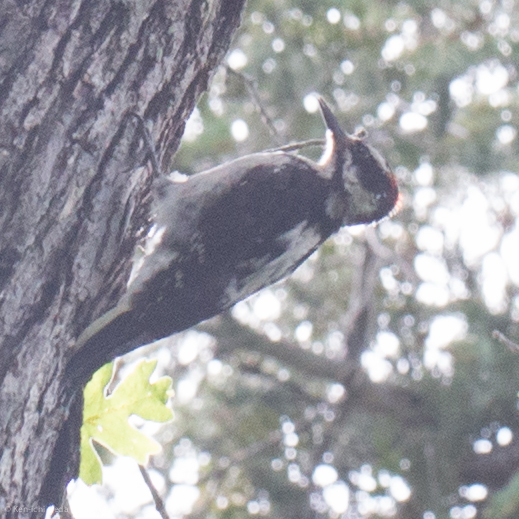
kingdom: Animalia
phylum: Chordata
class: Aves
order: Piciformes
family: Picidae
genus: Leuconotopicus
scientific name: Leuconotopicus villosus
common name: Hairy woodpecker
